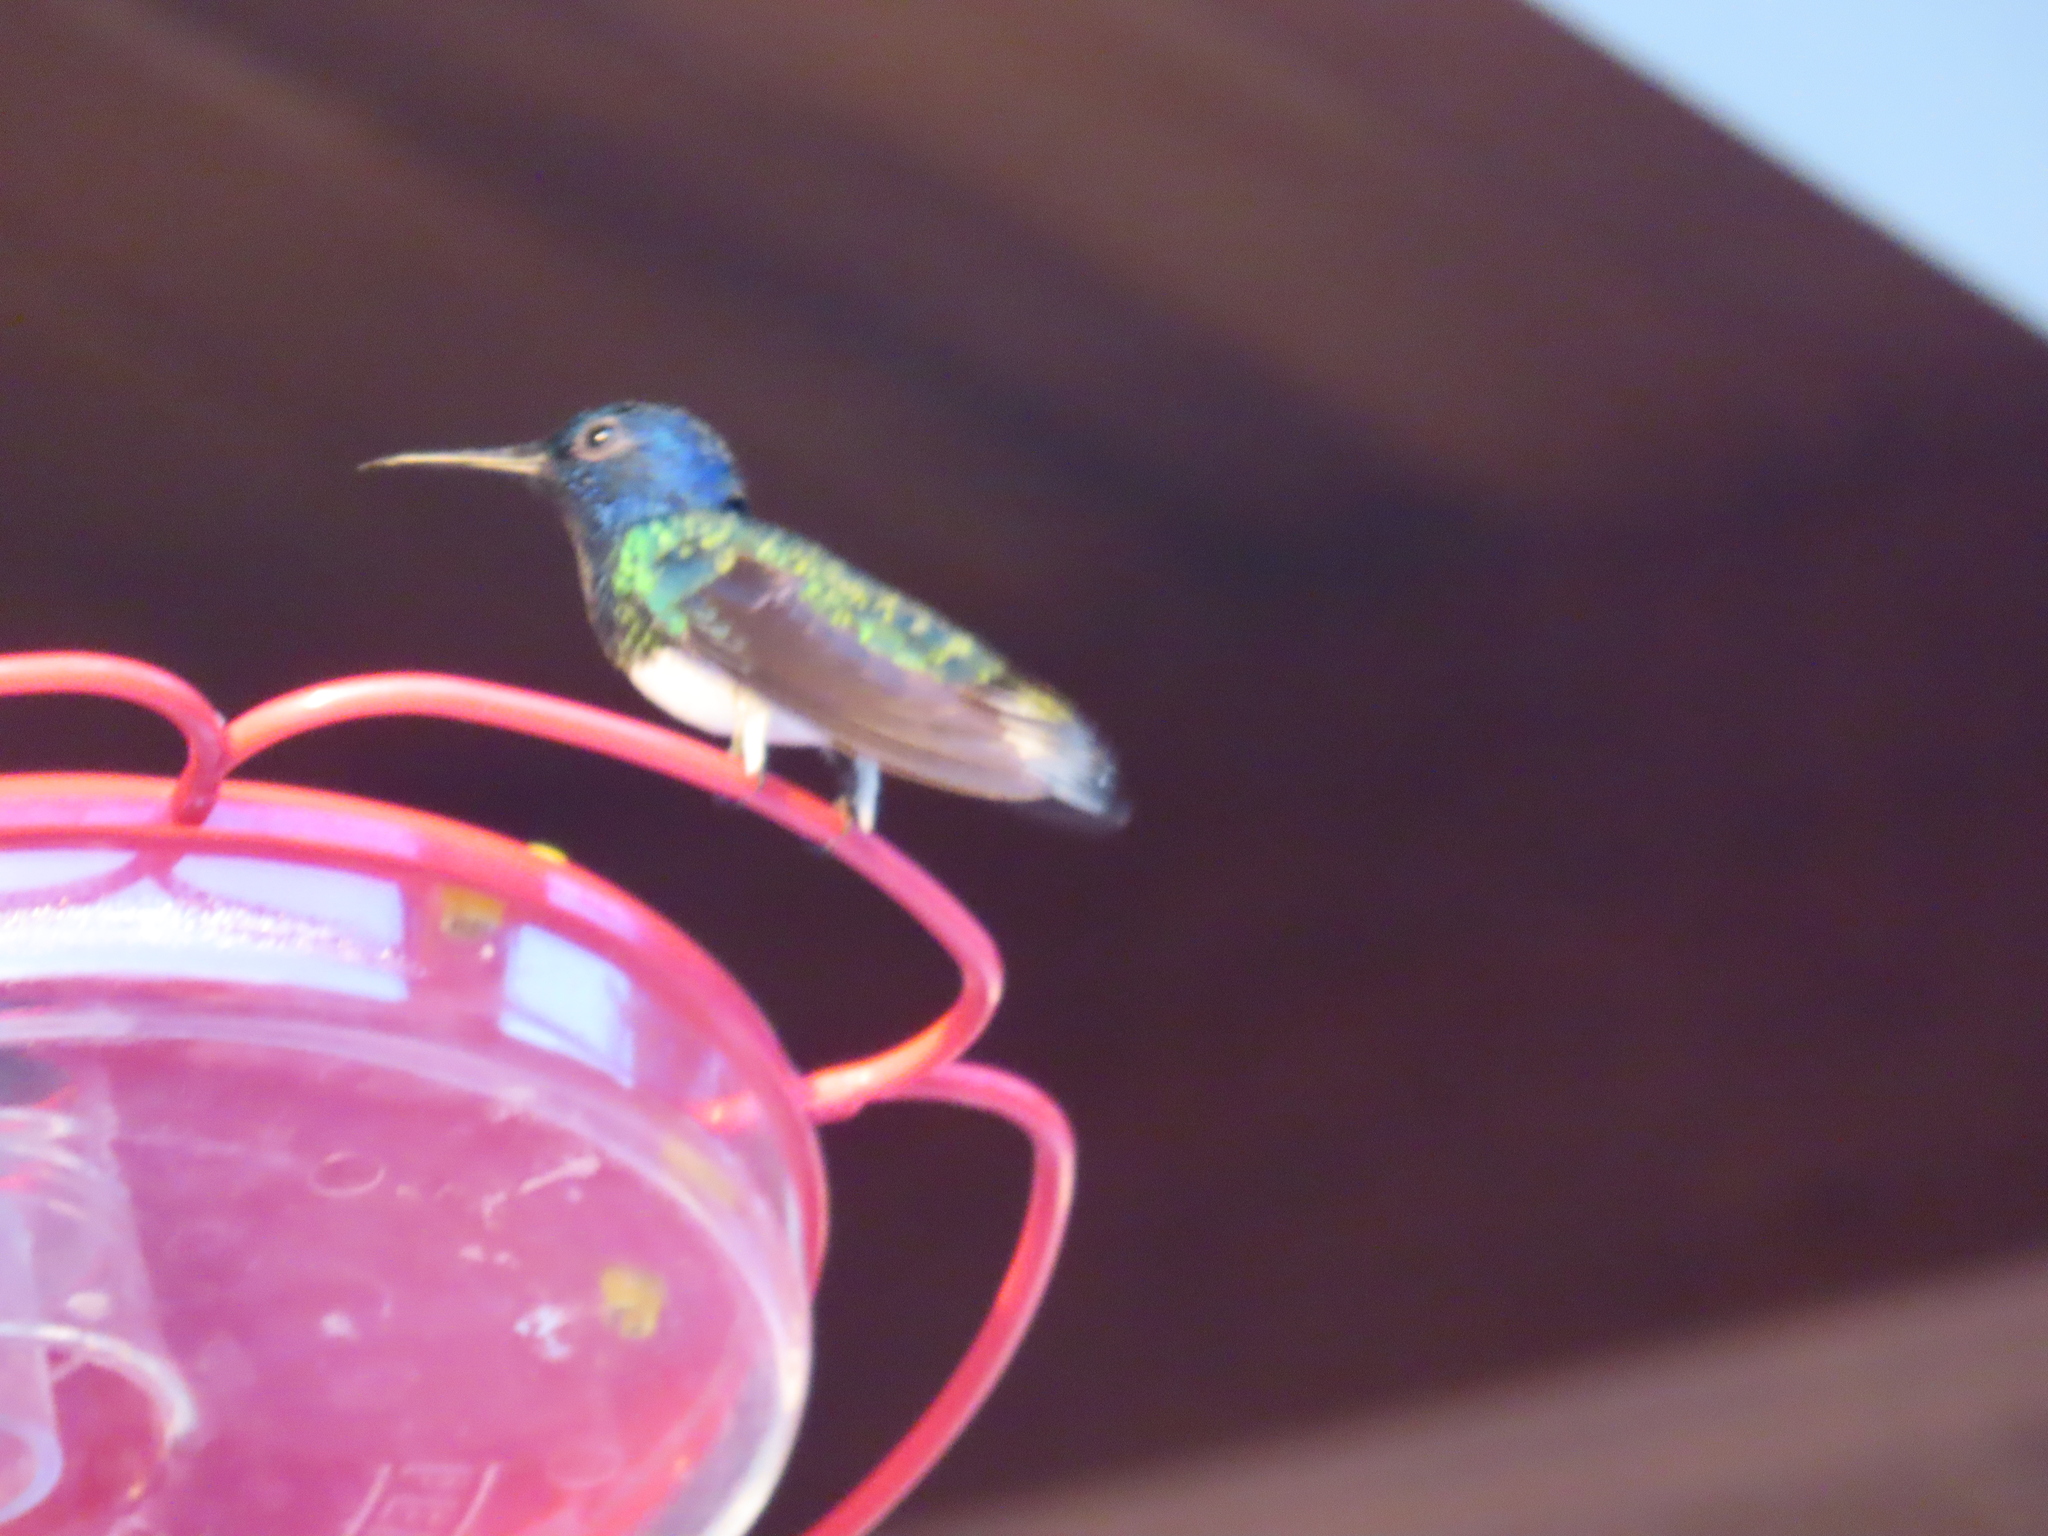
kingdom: Animalia
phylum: Chordata
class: Aves
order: Apodiformes
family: Trochilidae
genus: Florisuga
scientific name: Florisuga mellivora
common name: White-necked jacobin
